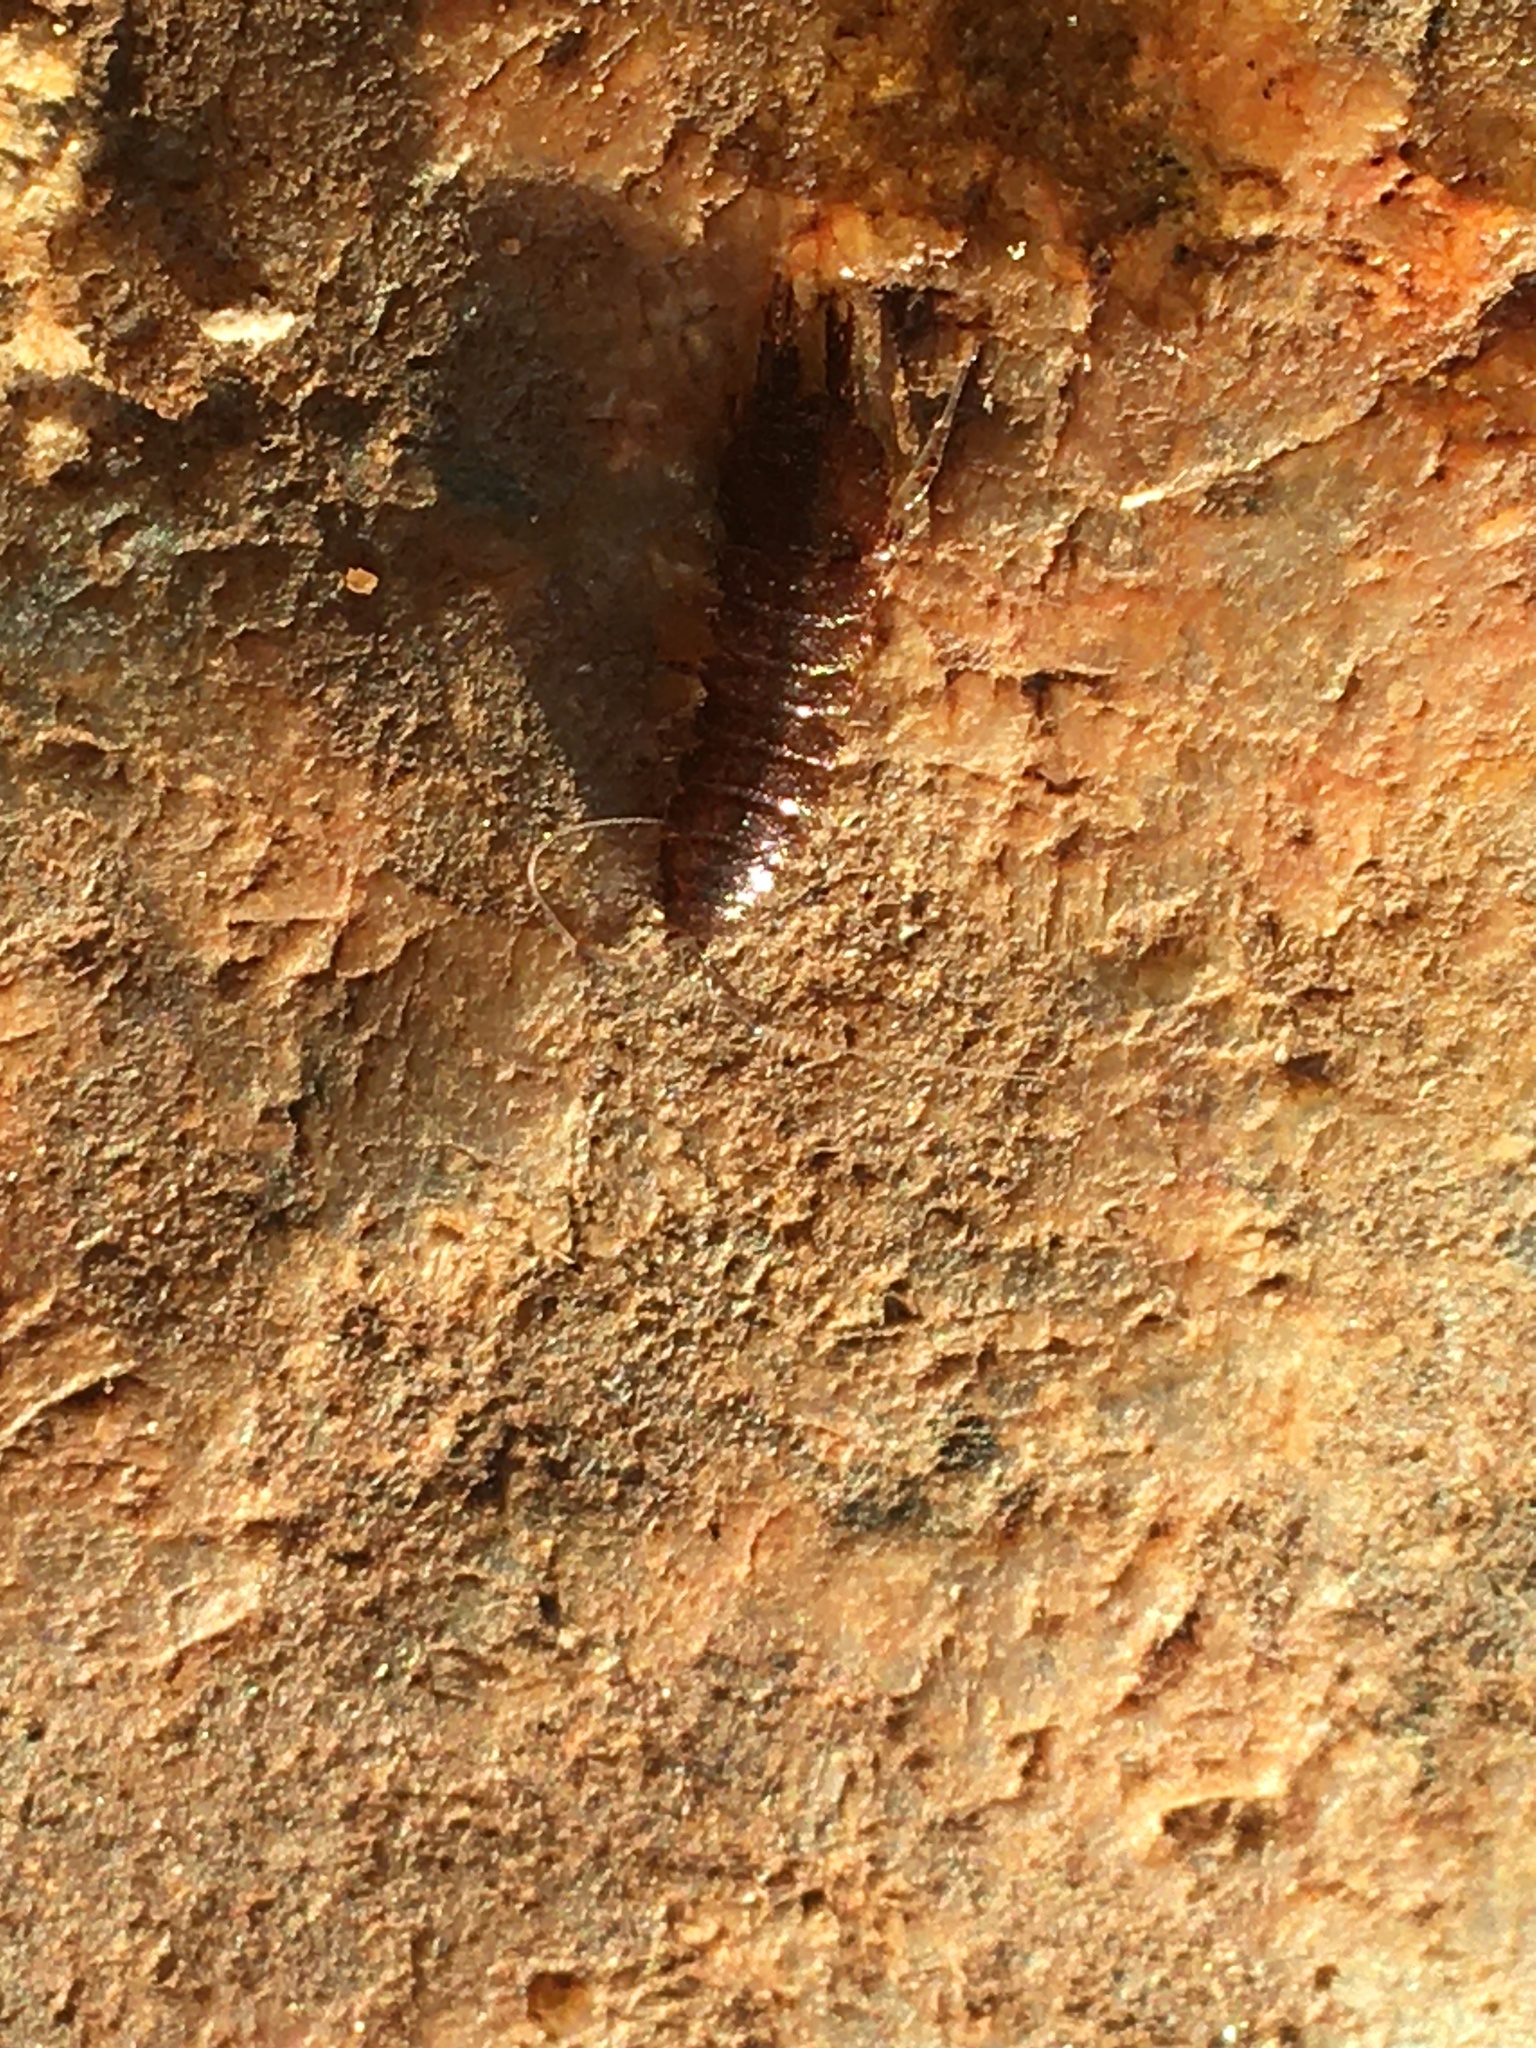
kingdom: Animalia
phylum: Arthropoda
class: Malacostraca
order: Isopoda
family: Asellidae
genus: Caecidotea
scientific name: Caecidotea
